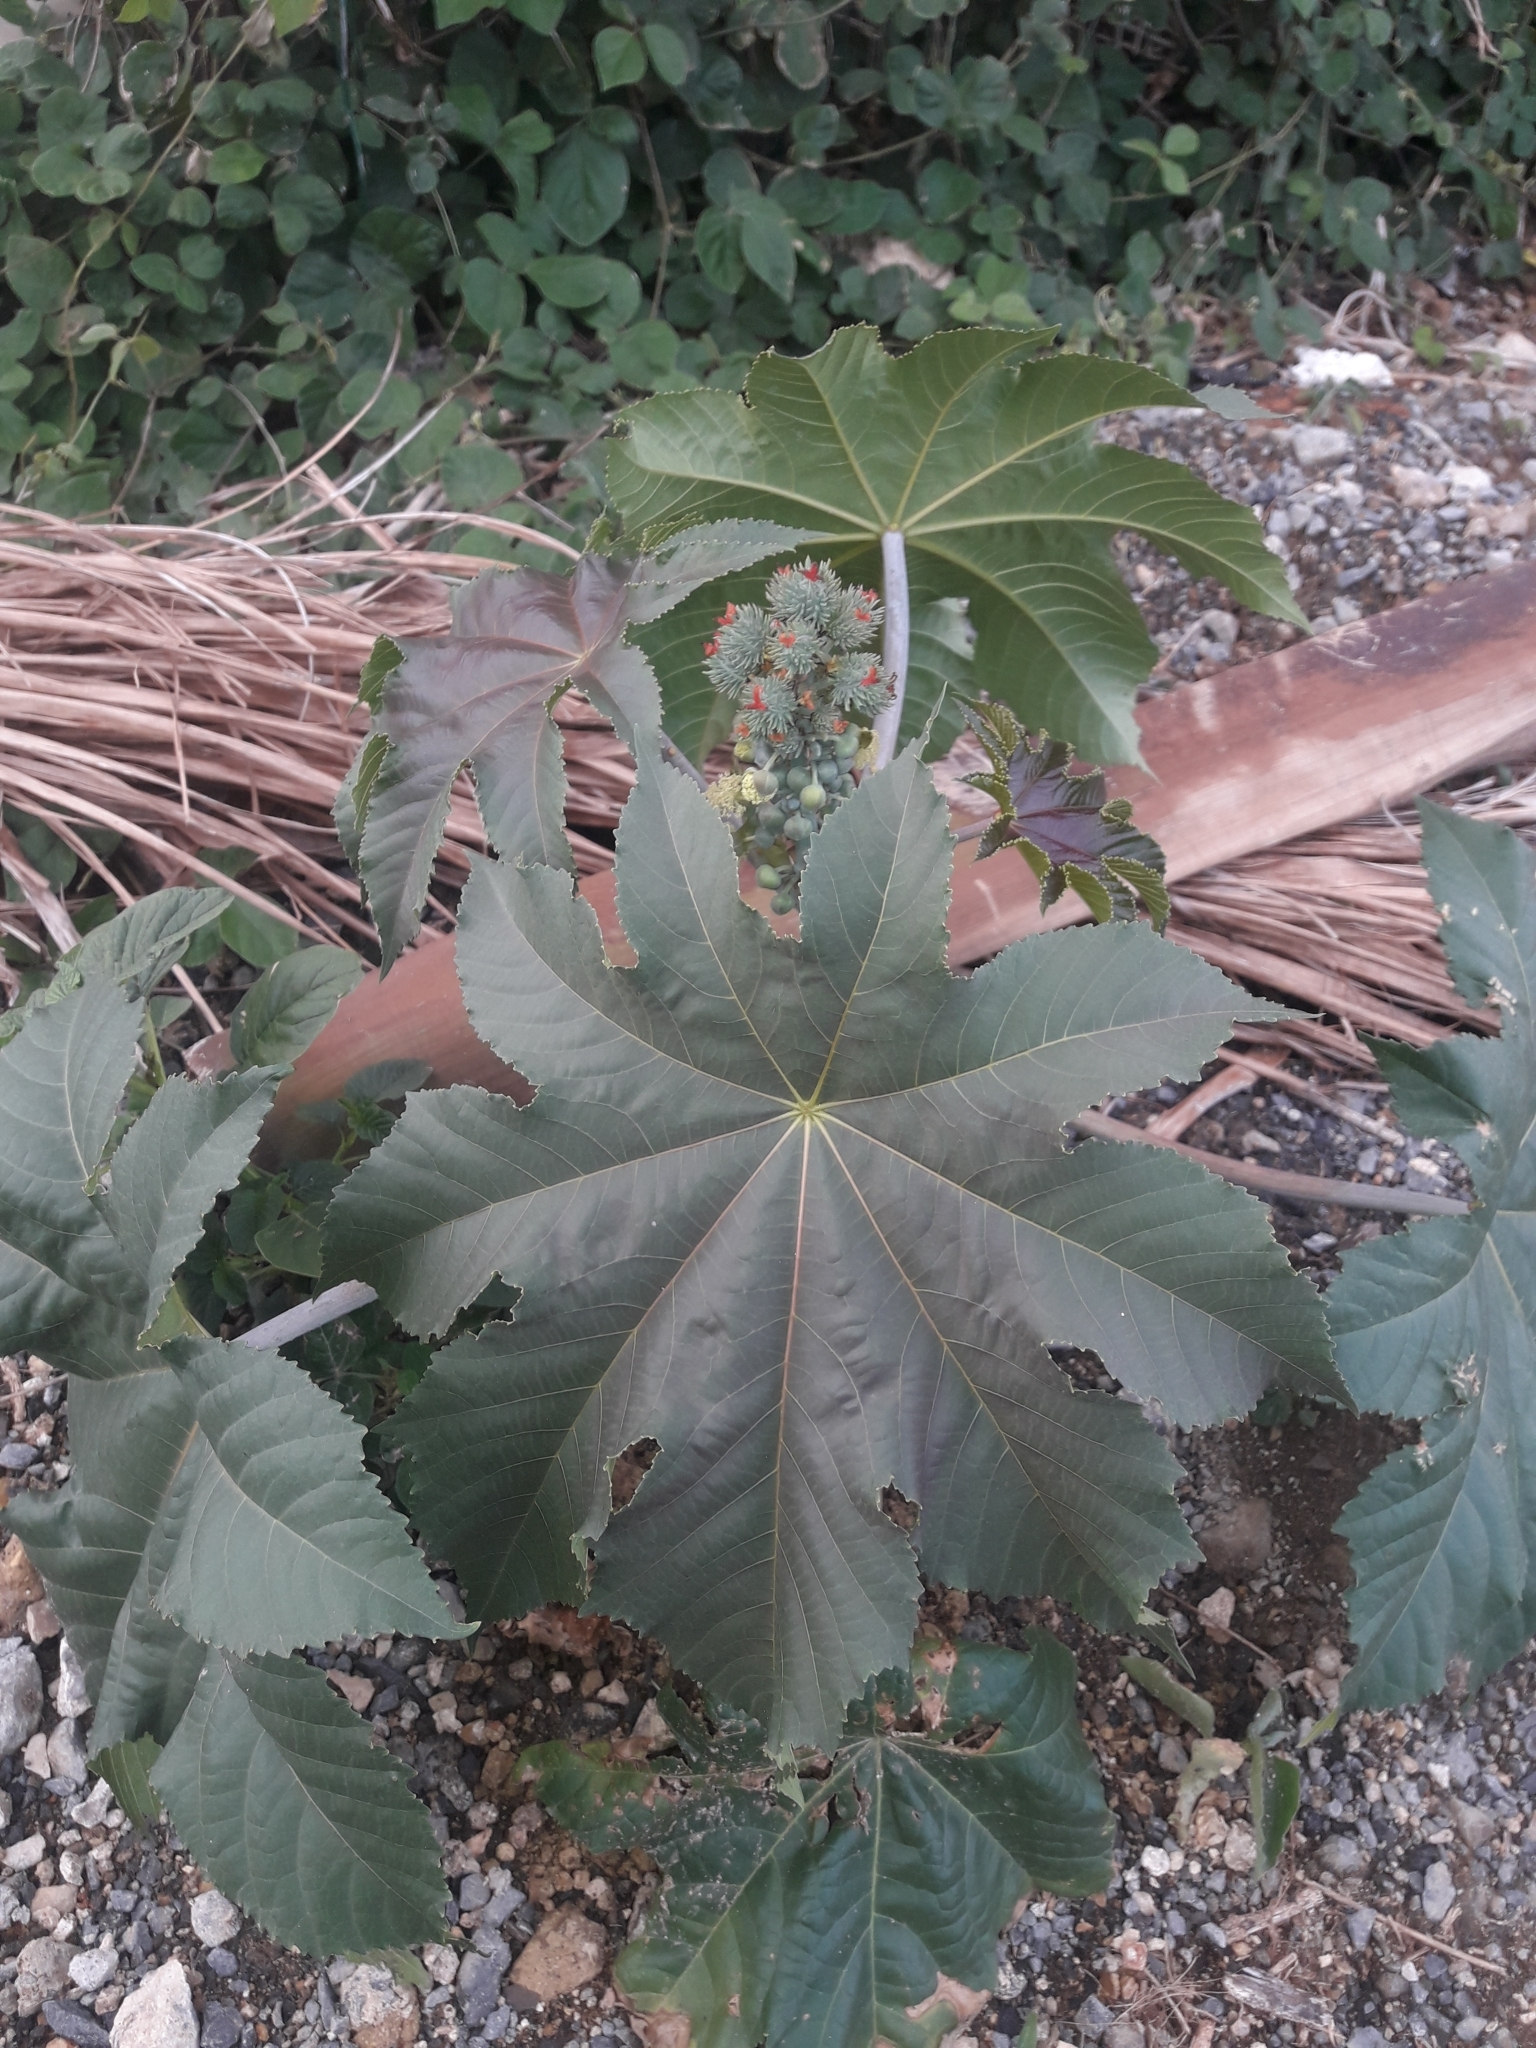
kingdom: Plantae
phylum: Tracheophyta
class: Magnoliopsida
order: Malpighiales
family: Euphorbiaceae
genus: Ricinus
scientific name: Ricinus communis
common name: Castor-oil-plant
